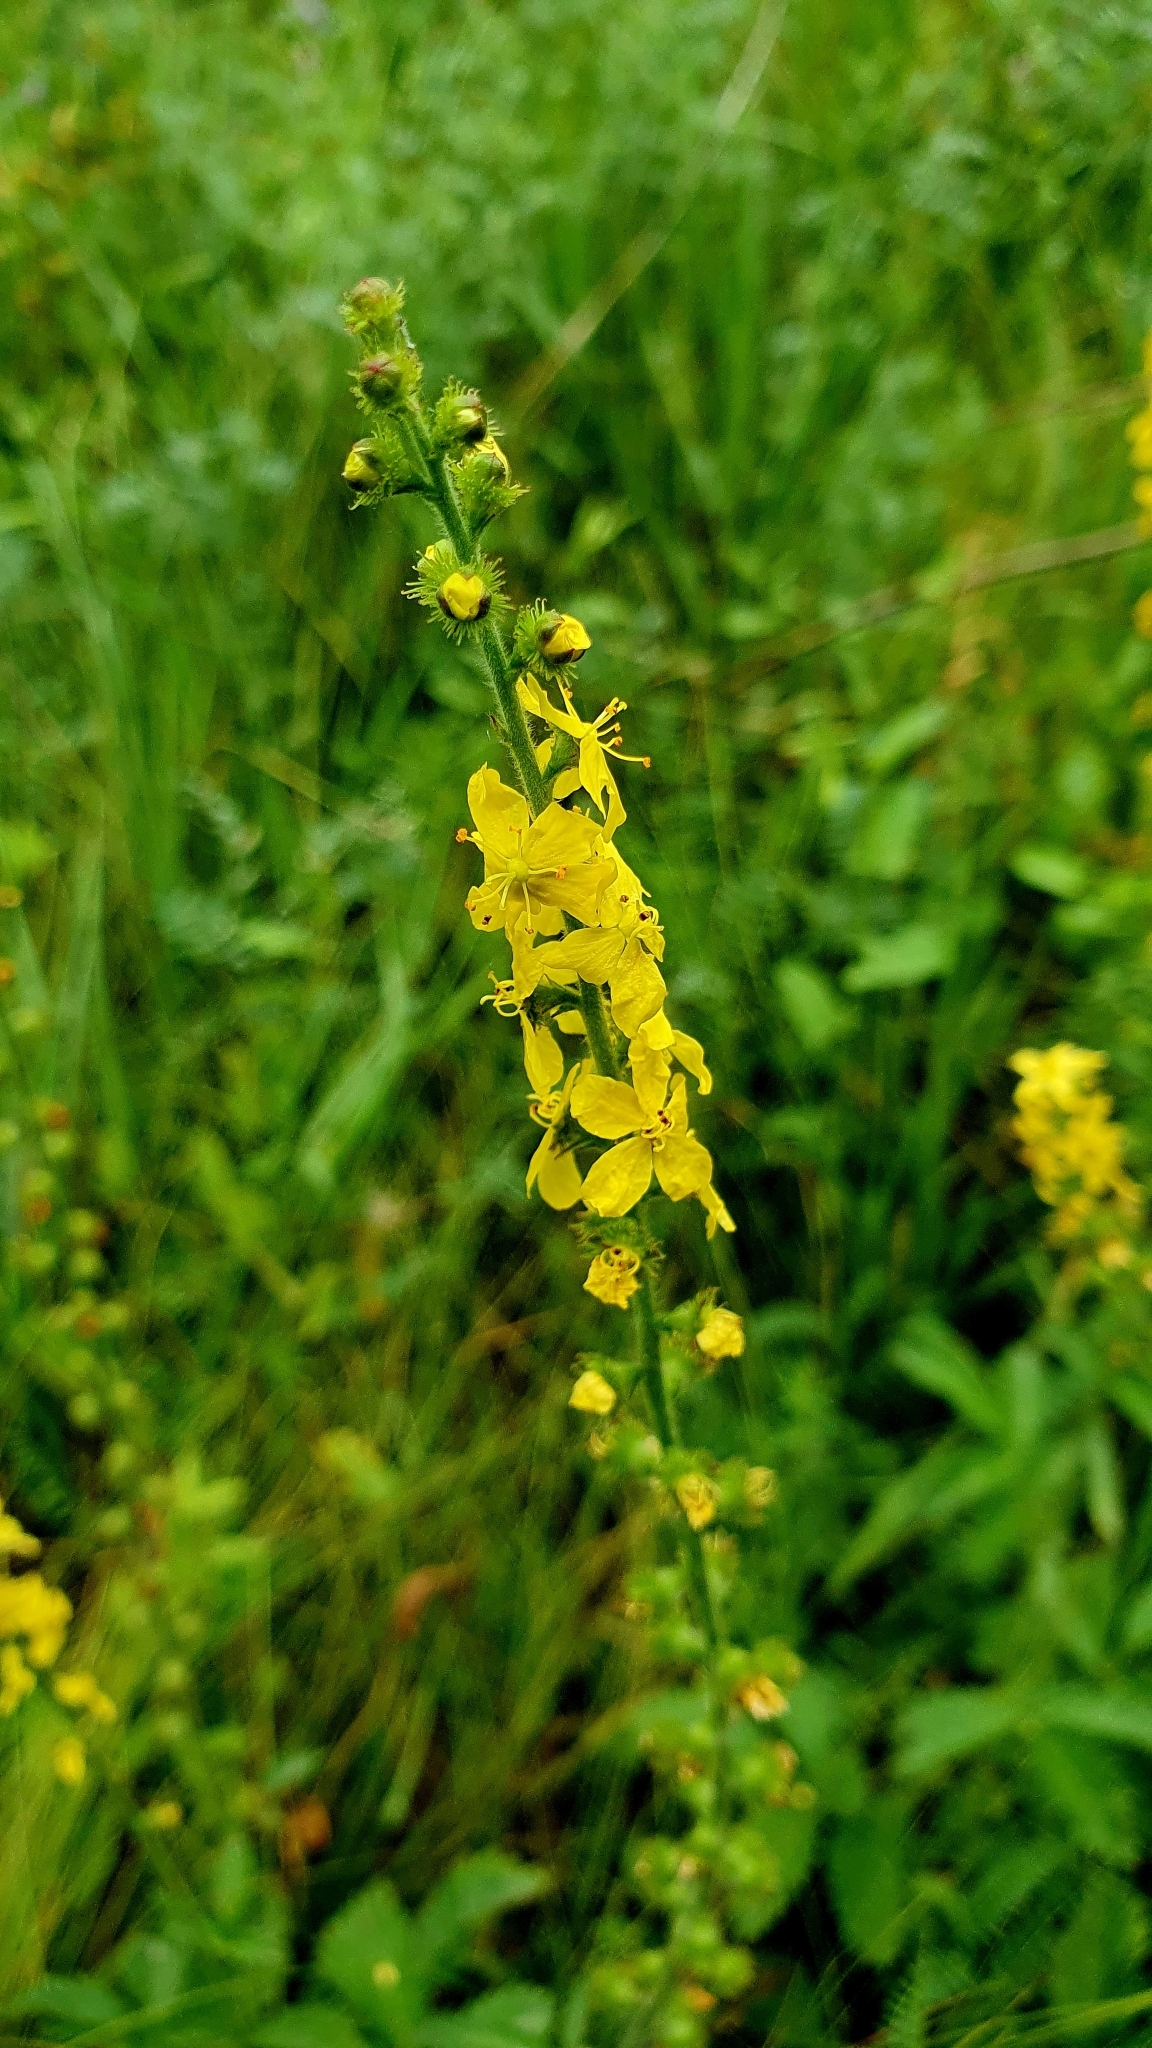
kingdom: Plantae
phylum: Tracheophyta
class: Magnoliopsida
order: Rosales
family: Rosaceae
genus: Agrimonia
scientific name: Agrimonia eupatoria
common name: Agrimony
